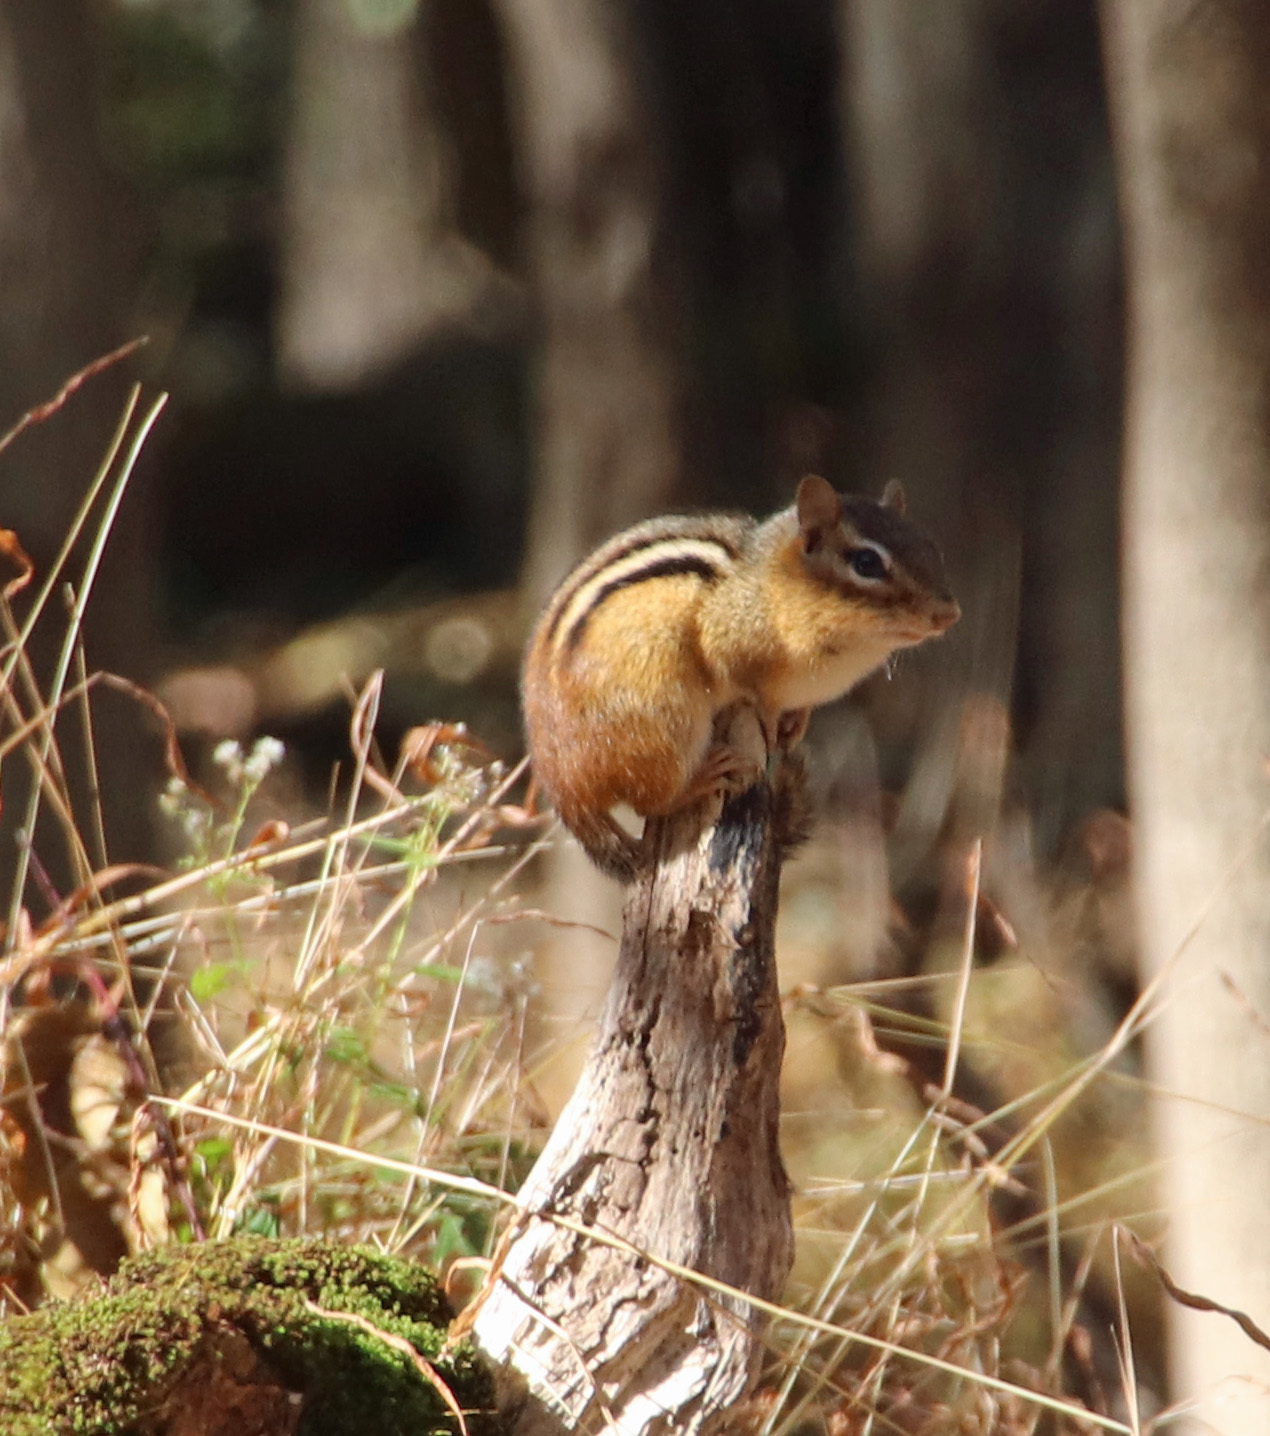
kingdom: Animalia
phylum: Chordata
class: Mammalia
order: Rodentia
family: Sciuridae
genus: Tamias
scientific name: Tamias striatus
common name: Eastern chipmunk
